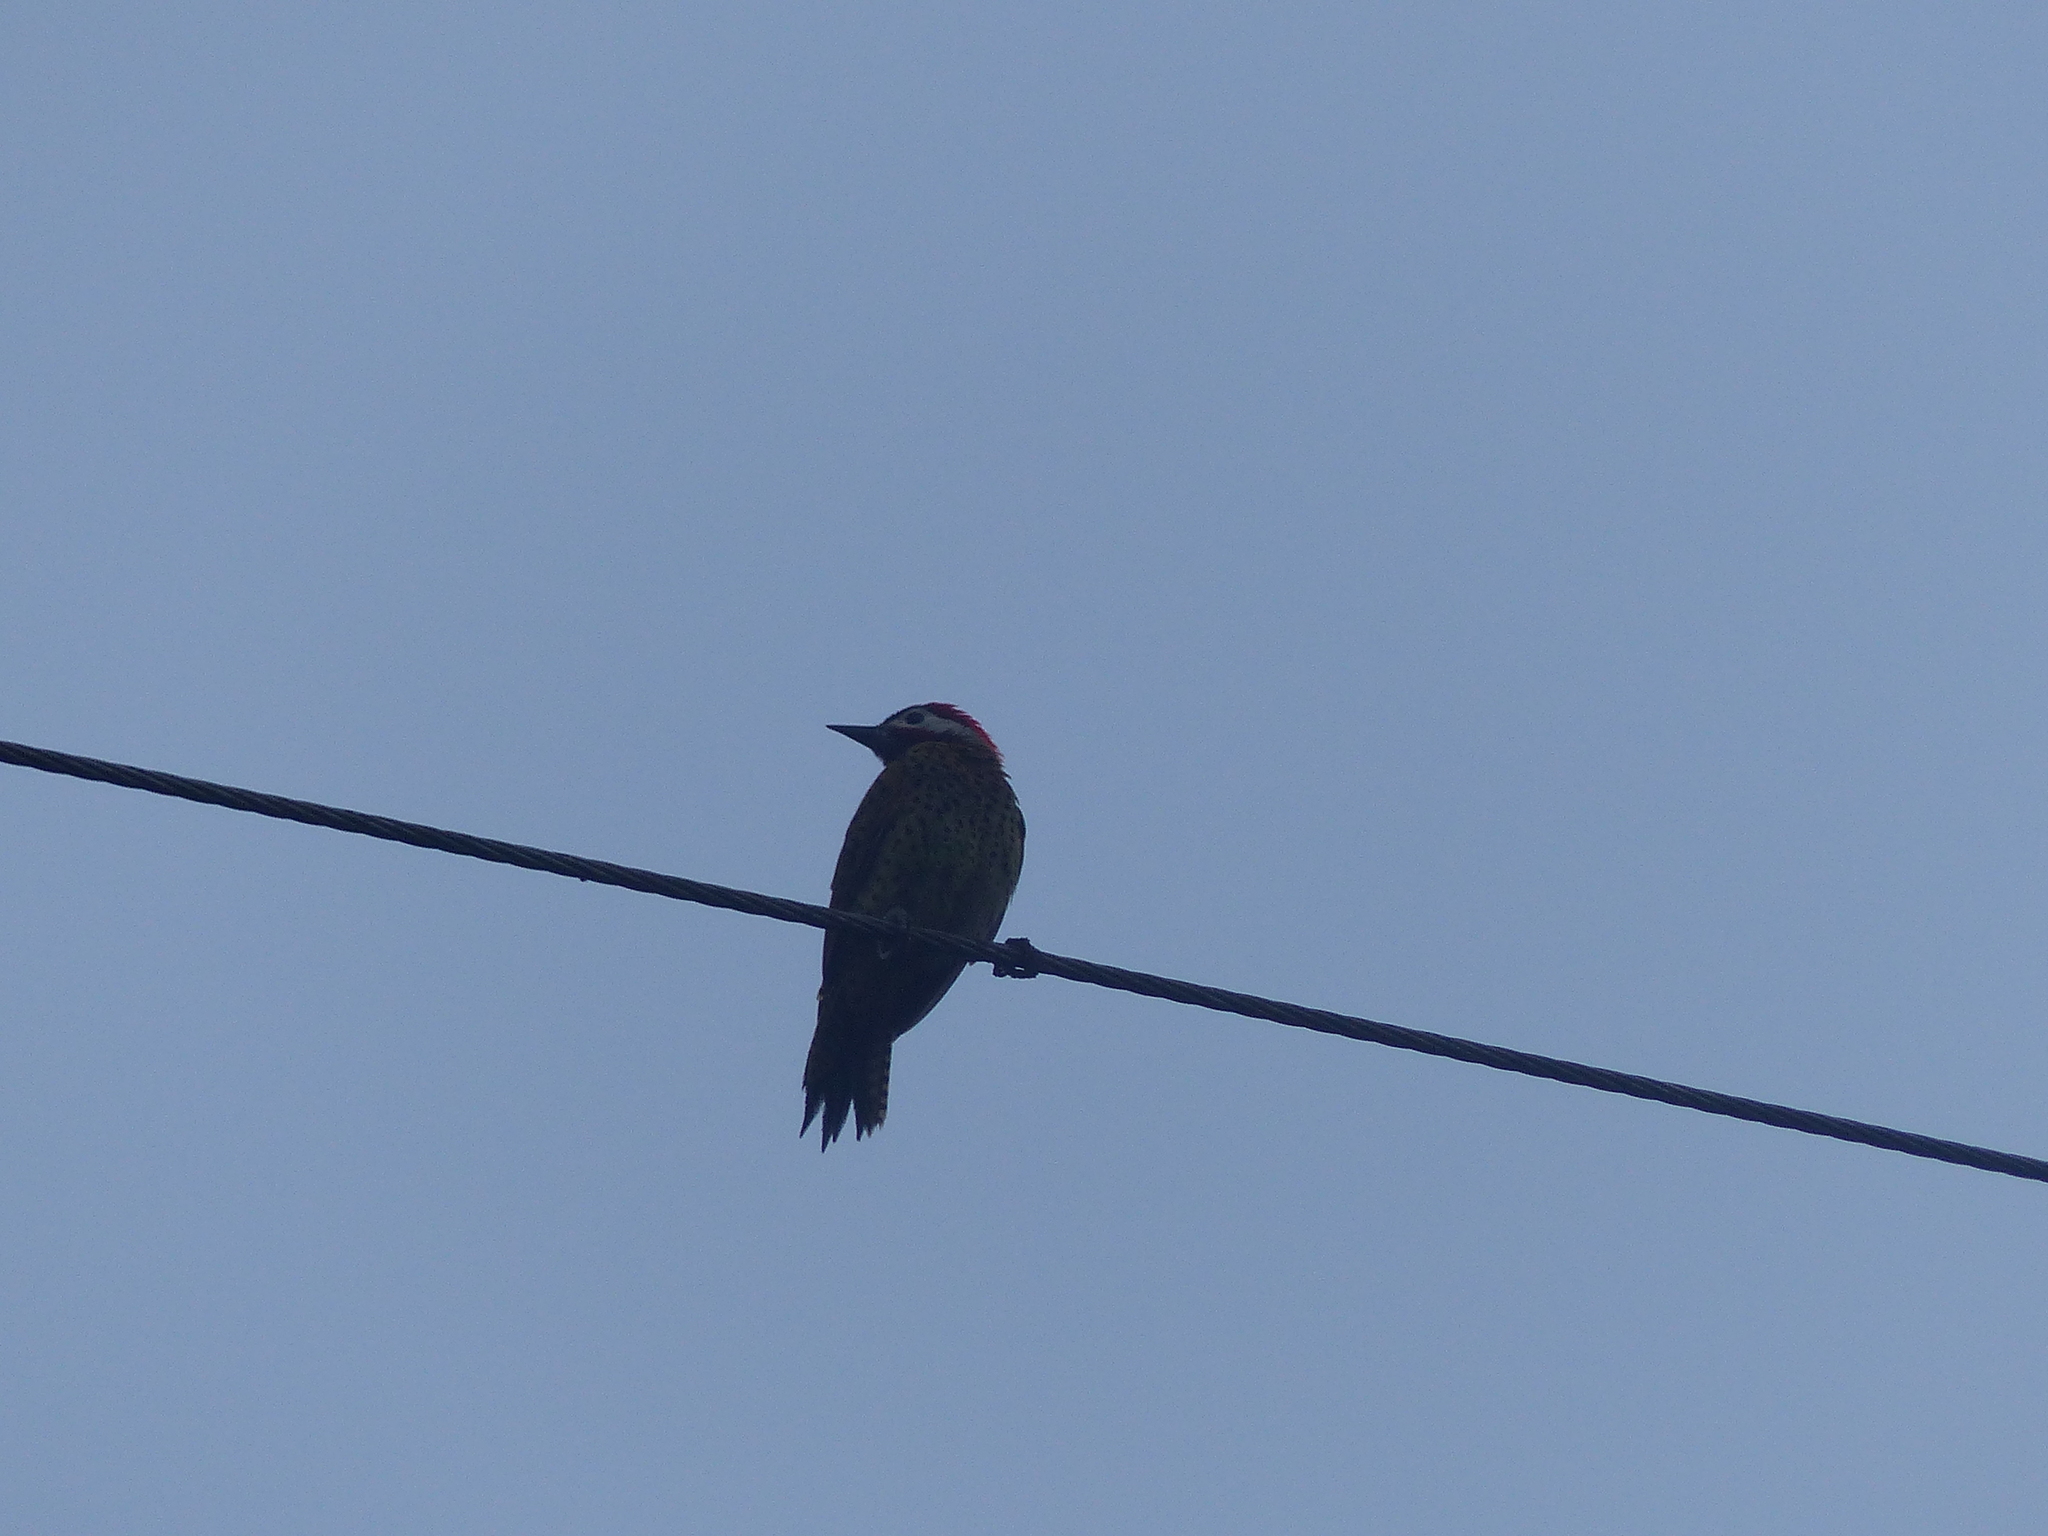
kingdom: Animalia
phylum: Chordata
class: Aves
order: Piciformes
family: Picidae
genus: Colaptes
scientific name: Colaptes punctigula
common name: Spot-breasted woodpecker
